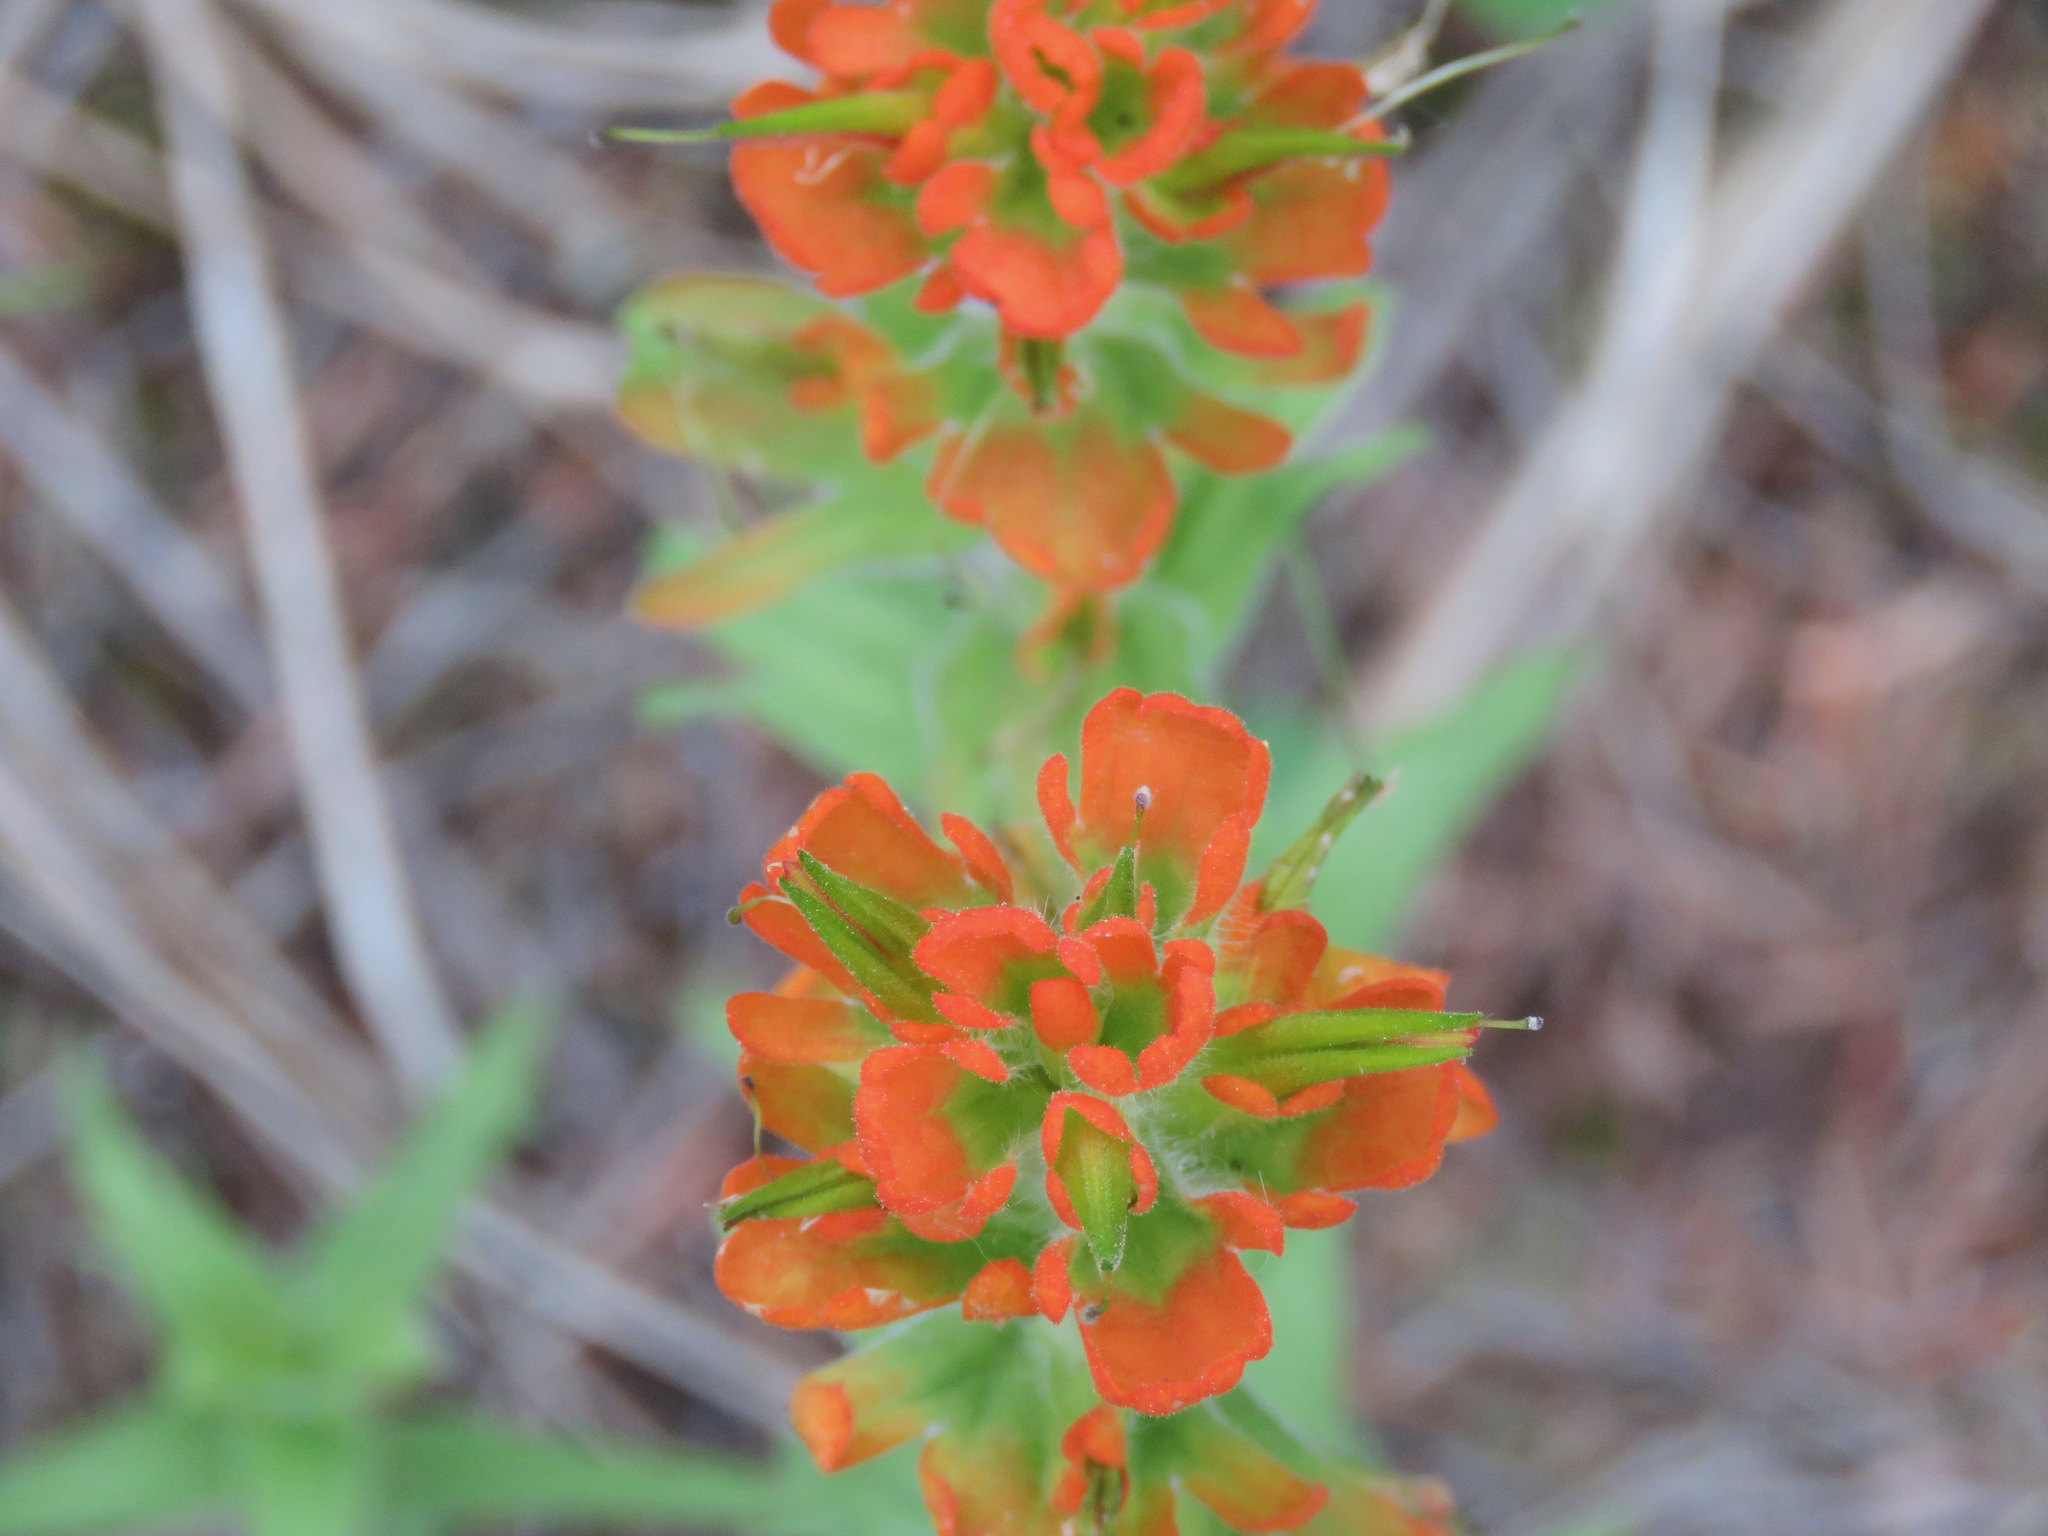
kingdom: Plantae
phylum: Tracheophyta
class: Magnoliopsida
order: Lamiales
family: Orobanchaceae
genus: Castilleja
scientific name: Castilleja hispida
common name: Bristly paintbrush
